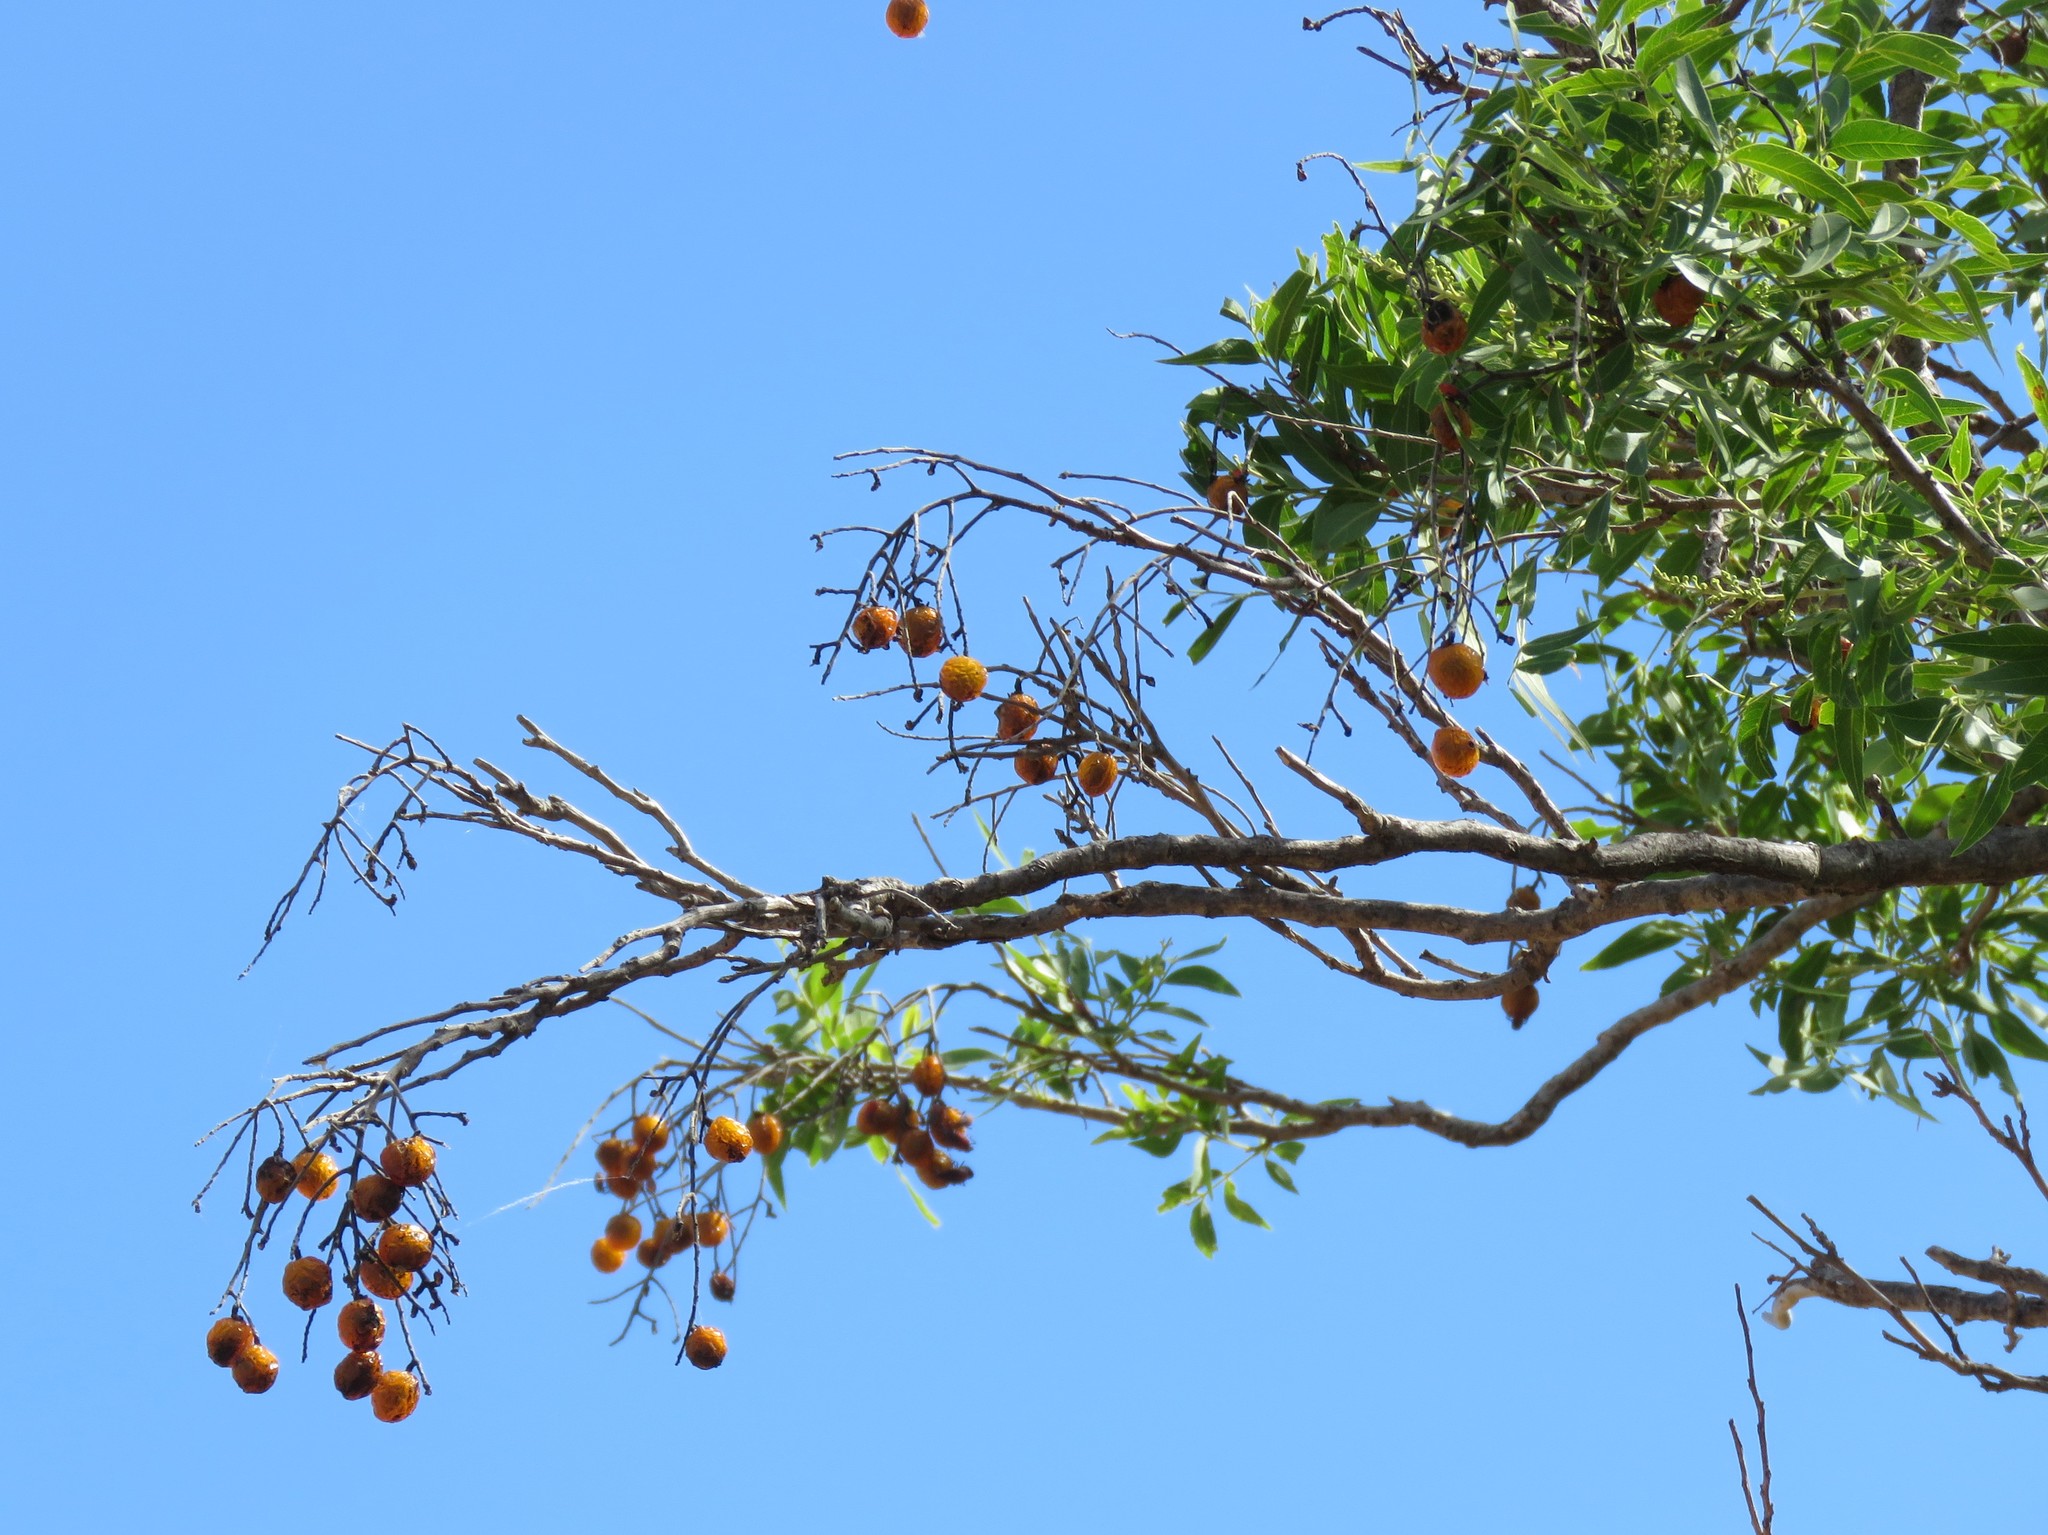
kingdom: Plantae
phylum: Tracheophyta
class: Magnoliopsida
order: Sapindales
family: Sapindaceae
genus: Sapindus
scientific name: Sapindus drummondii
